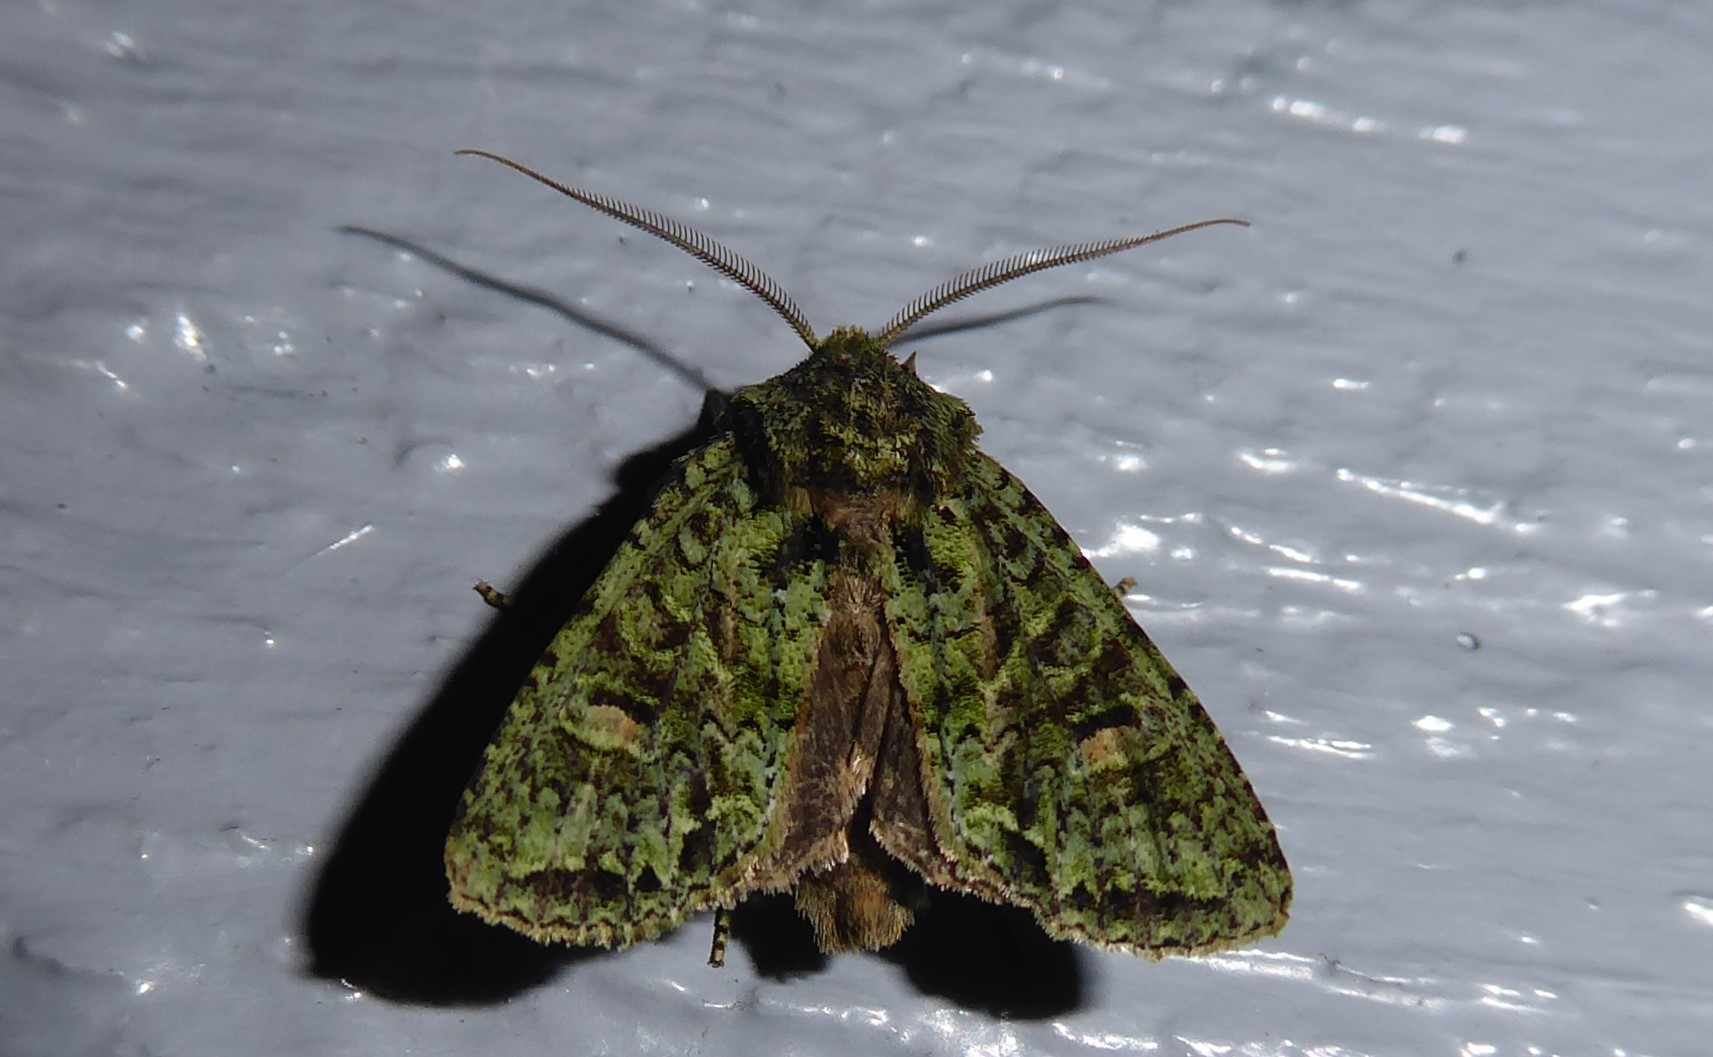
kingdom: Animalia
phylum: Arthropoda
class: Insecta
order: Lepidoptera
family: Noctuidae
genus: Ichneutica
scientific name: Ichneutica
